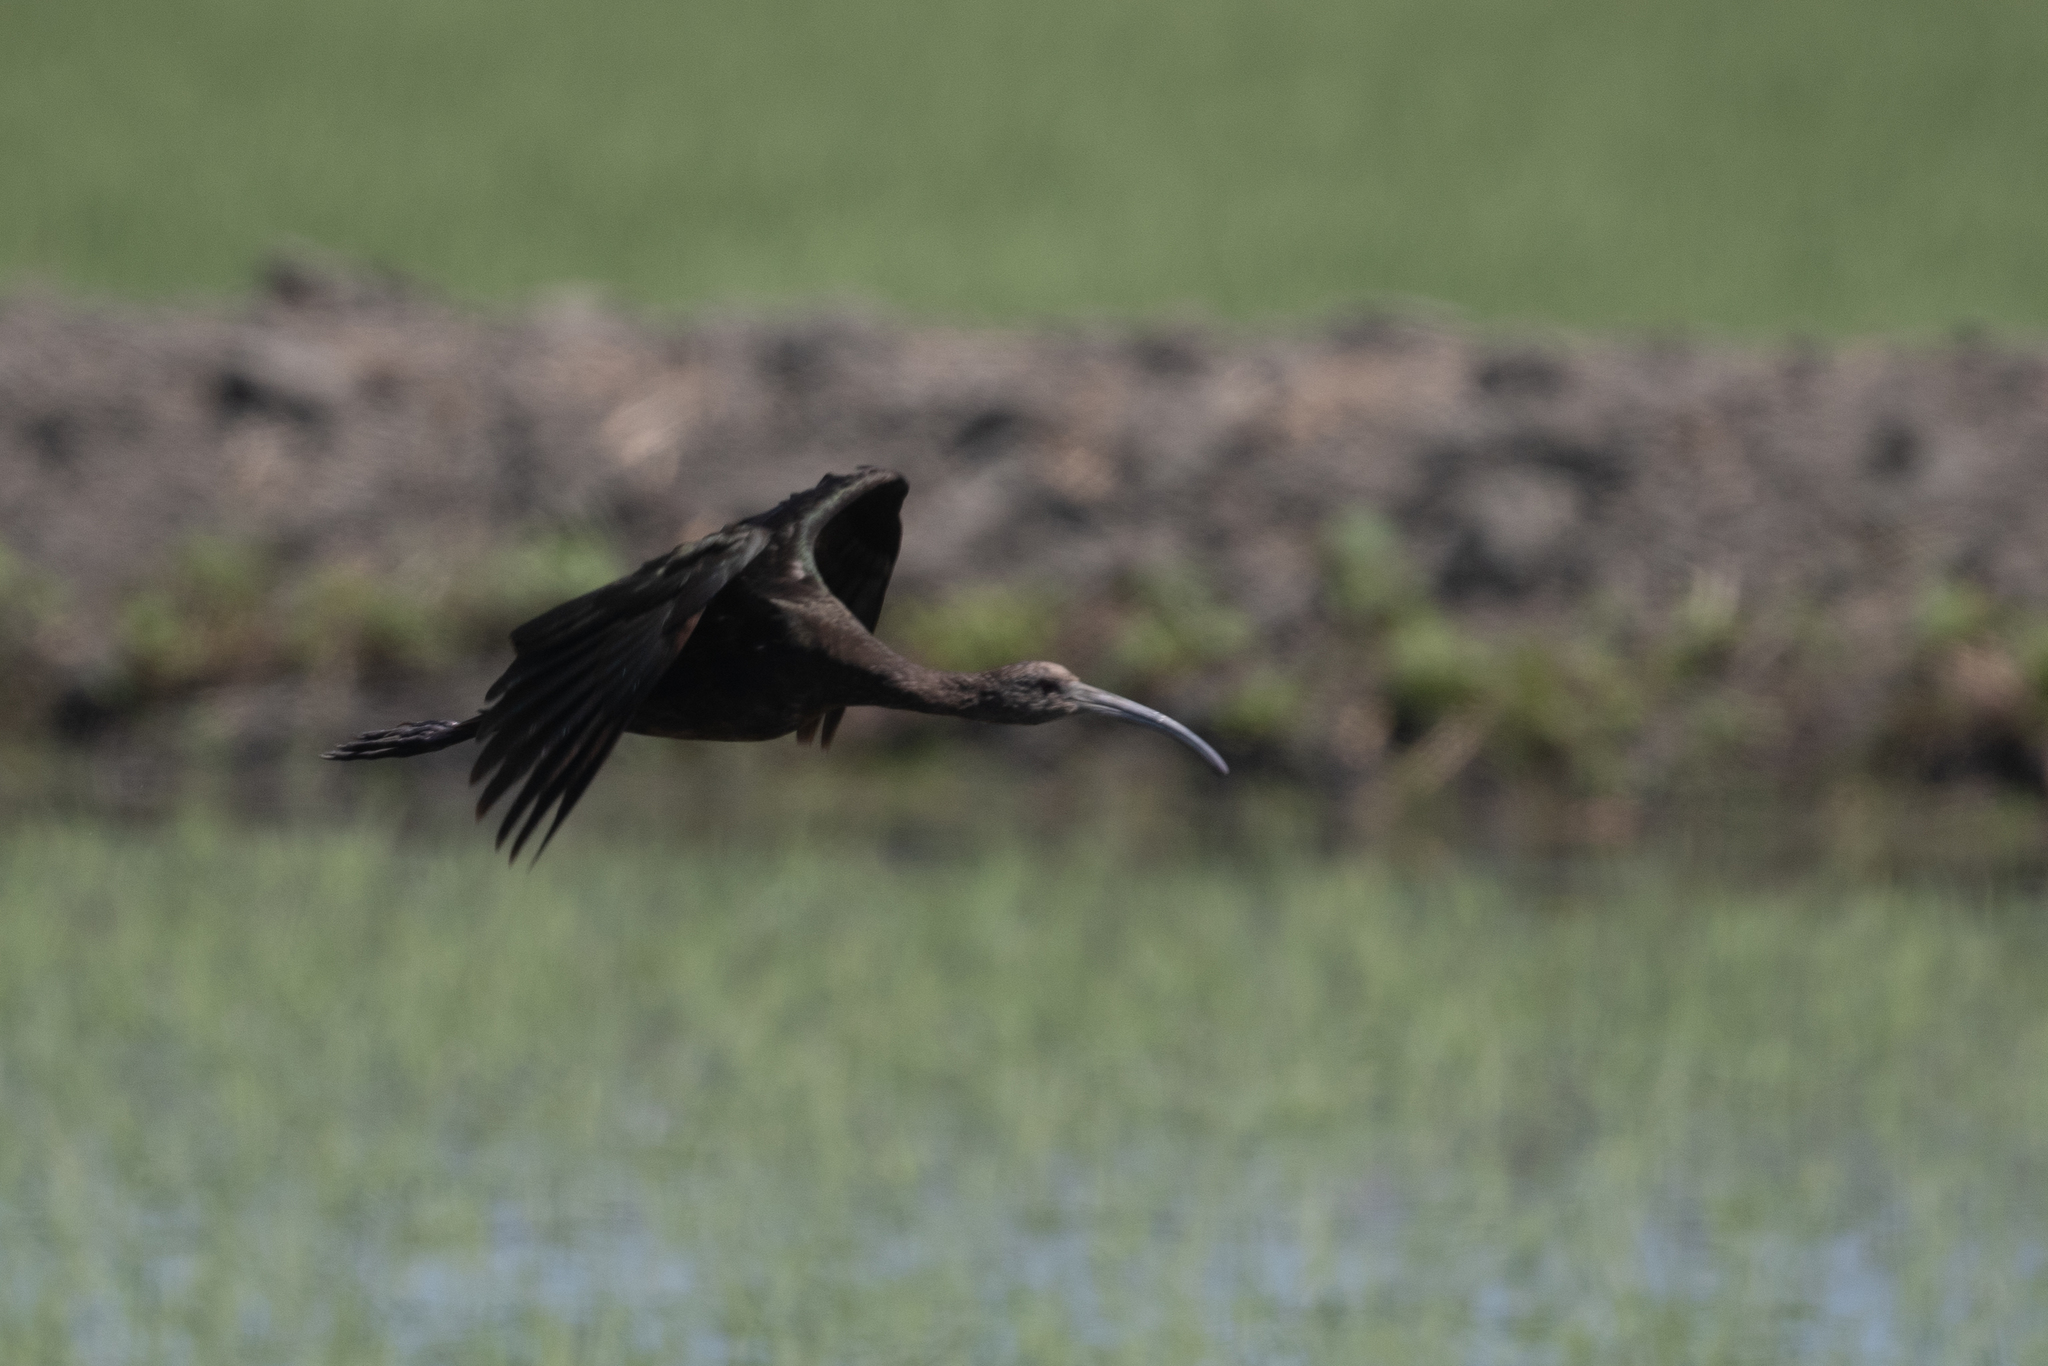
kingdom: Animalia
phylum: Chordata
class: Aves
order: Pelecaniformes
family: Threskiornithidae
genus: Plegadis
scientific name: Plegadis chihi
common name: White-faced ibis
